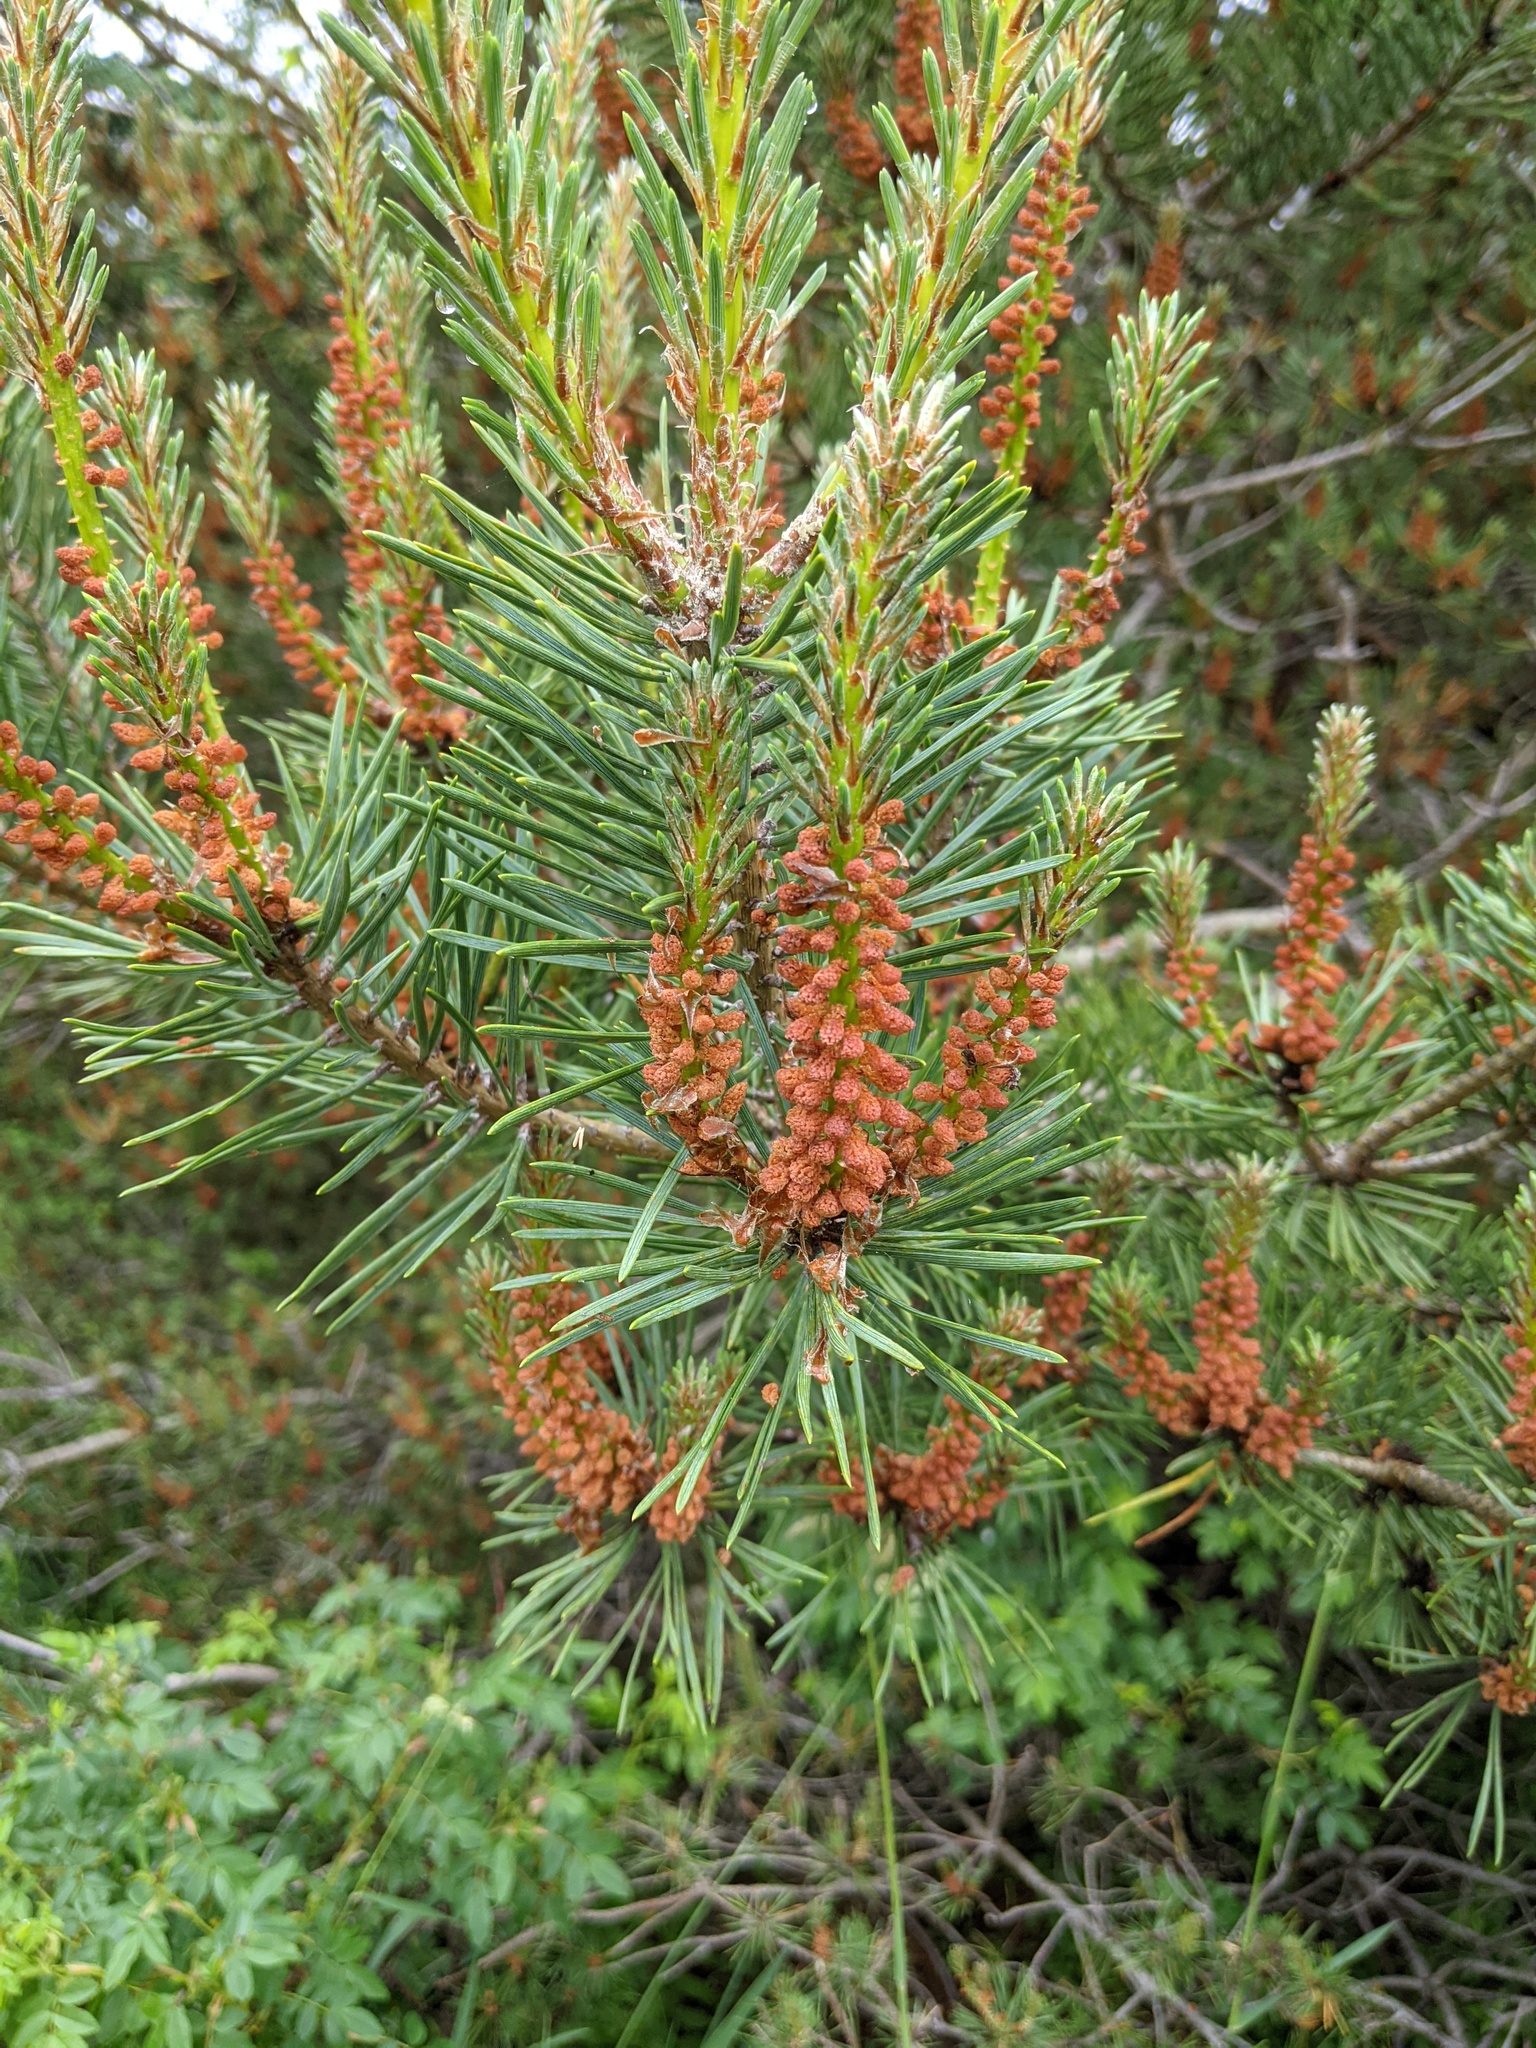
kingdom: Plantae
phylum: Tracheophyta
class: Pinopsida
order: Pinales
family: Pinaceae
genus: Pinus
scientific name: Pinus sylvestris
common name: Scots pine
